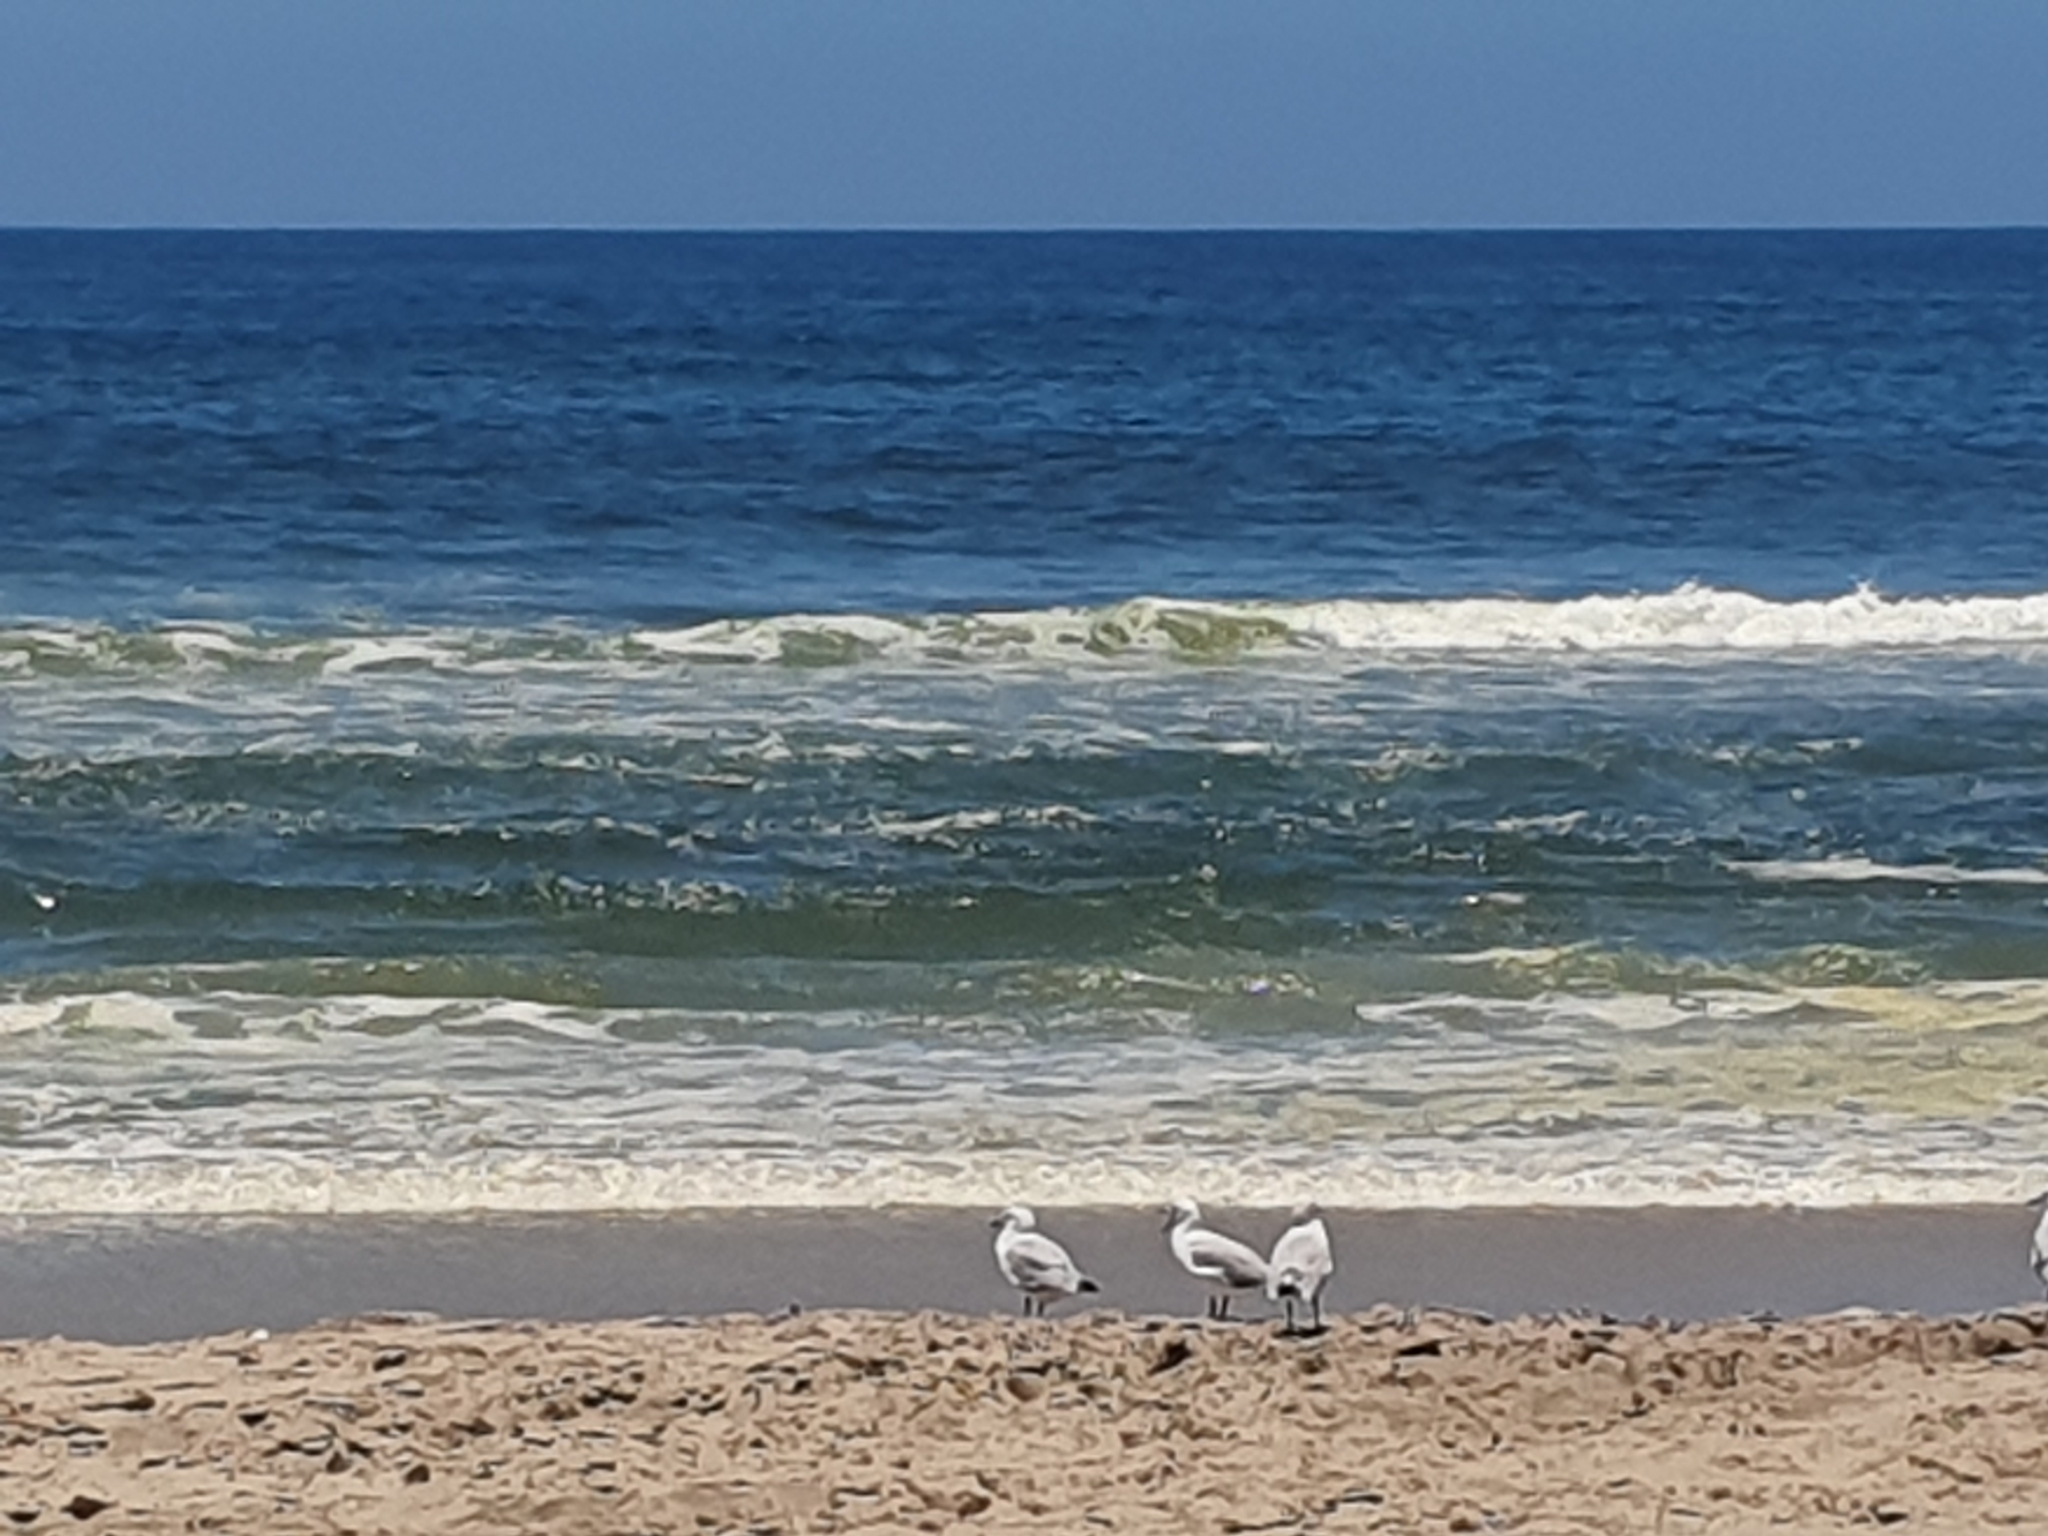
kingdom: Animalia
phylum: Chordata
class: Aves
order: Charadriiformes
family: Laridae
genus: Chroicocephalus
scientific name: Chroicocephalus hartlaubii
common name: Hartlaub's gull
